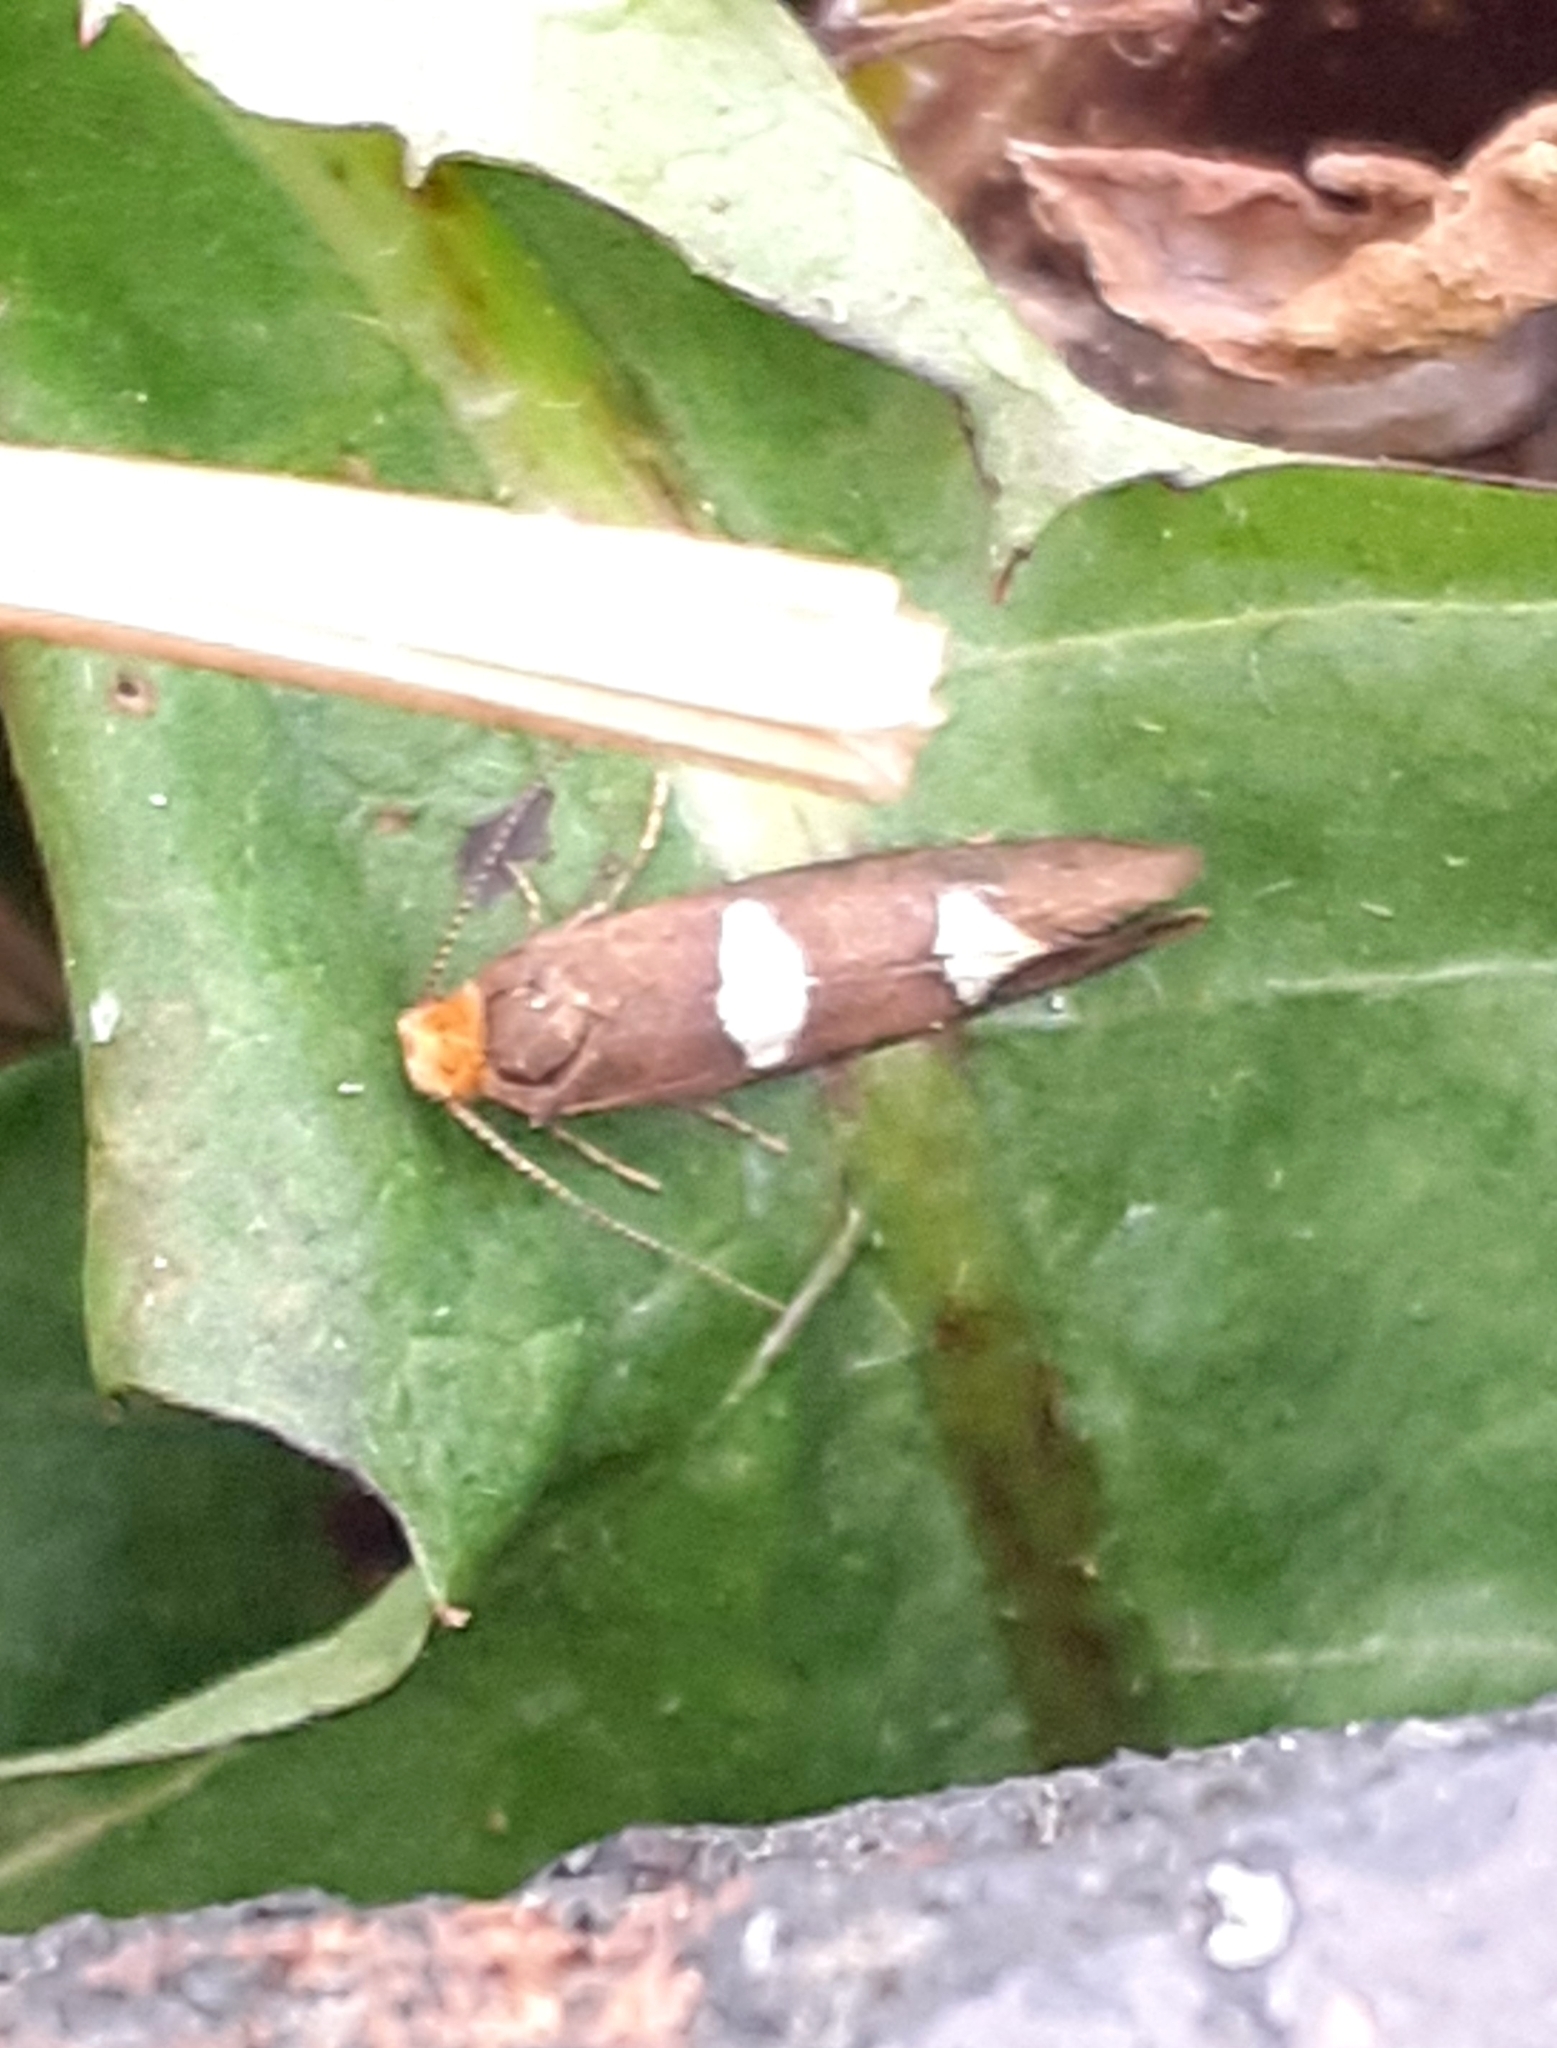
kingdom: Animalia
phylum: Arthropoda
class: Insecta
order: Lepidoptera
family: Incurvariidae
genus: Incurvaria
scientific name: Incurvaria masculella
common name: Feathered leaf-cutter
